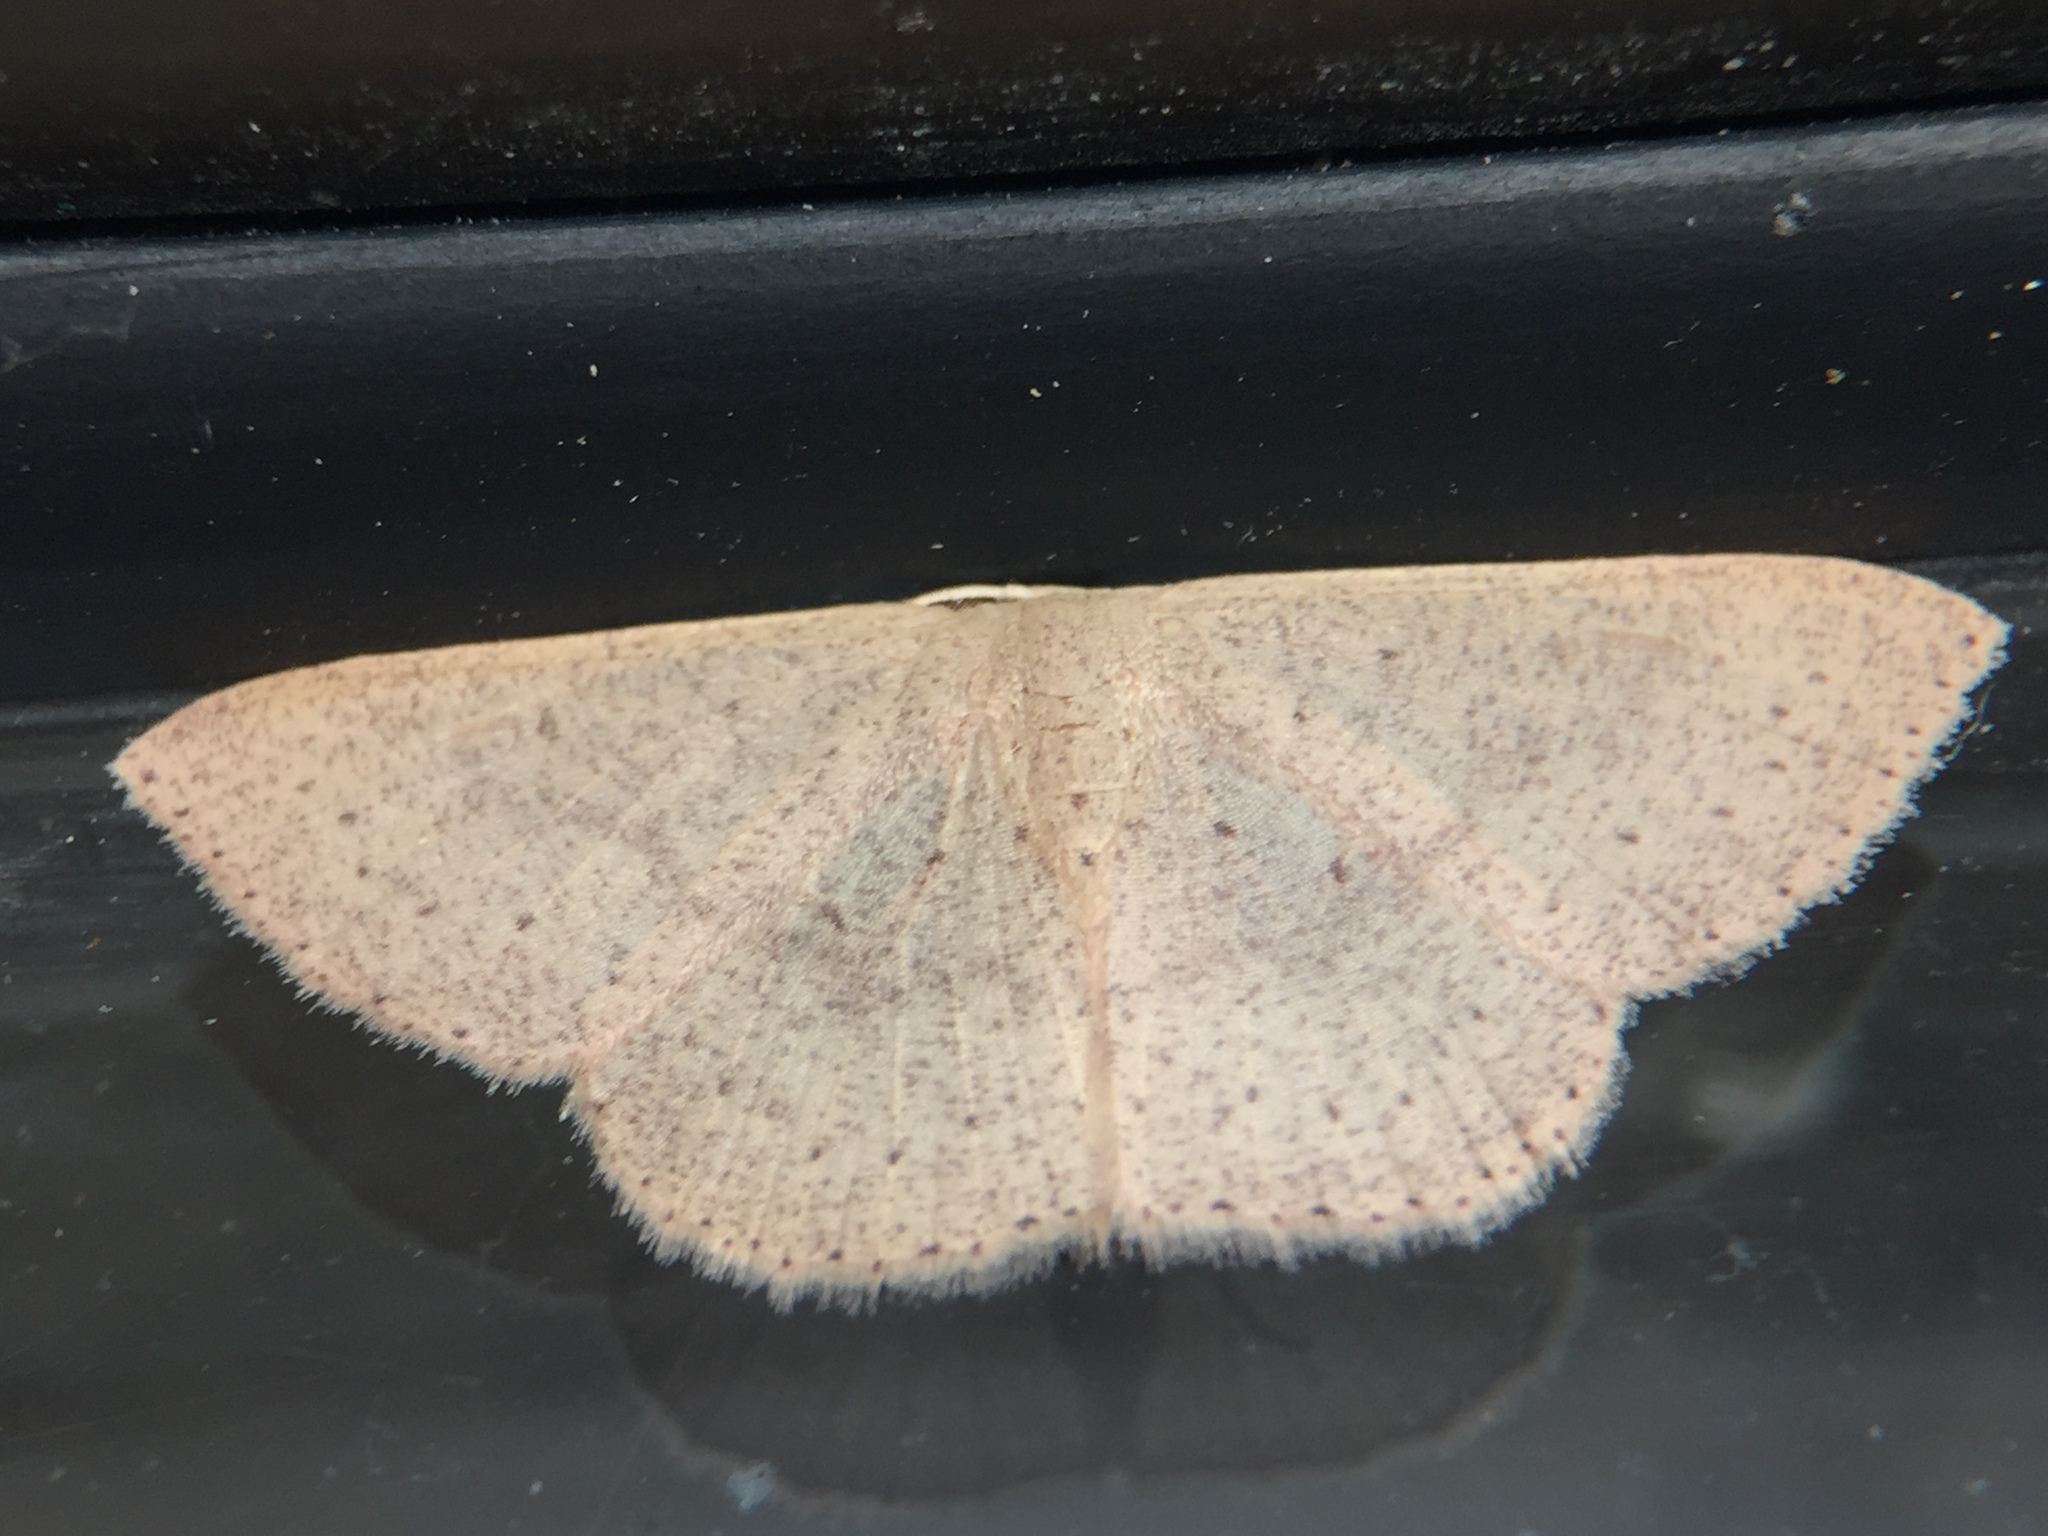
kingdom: Animalia
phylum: Arthropoda
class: Insecta
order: Lepidoptera
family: Geometridae
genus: Cyclophora
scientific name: Cyclophora obstataria
